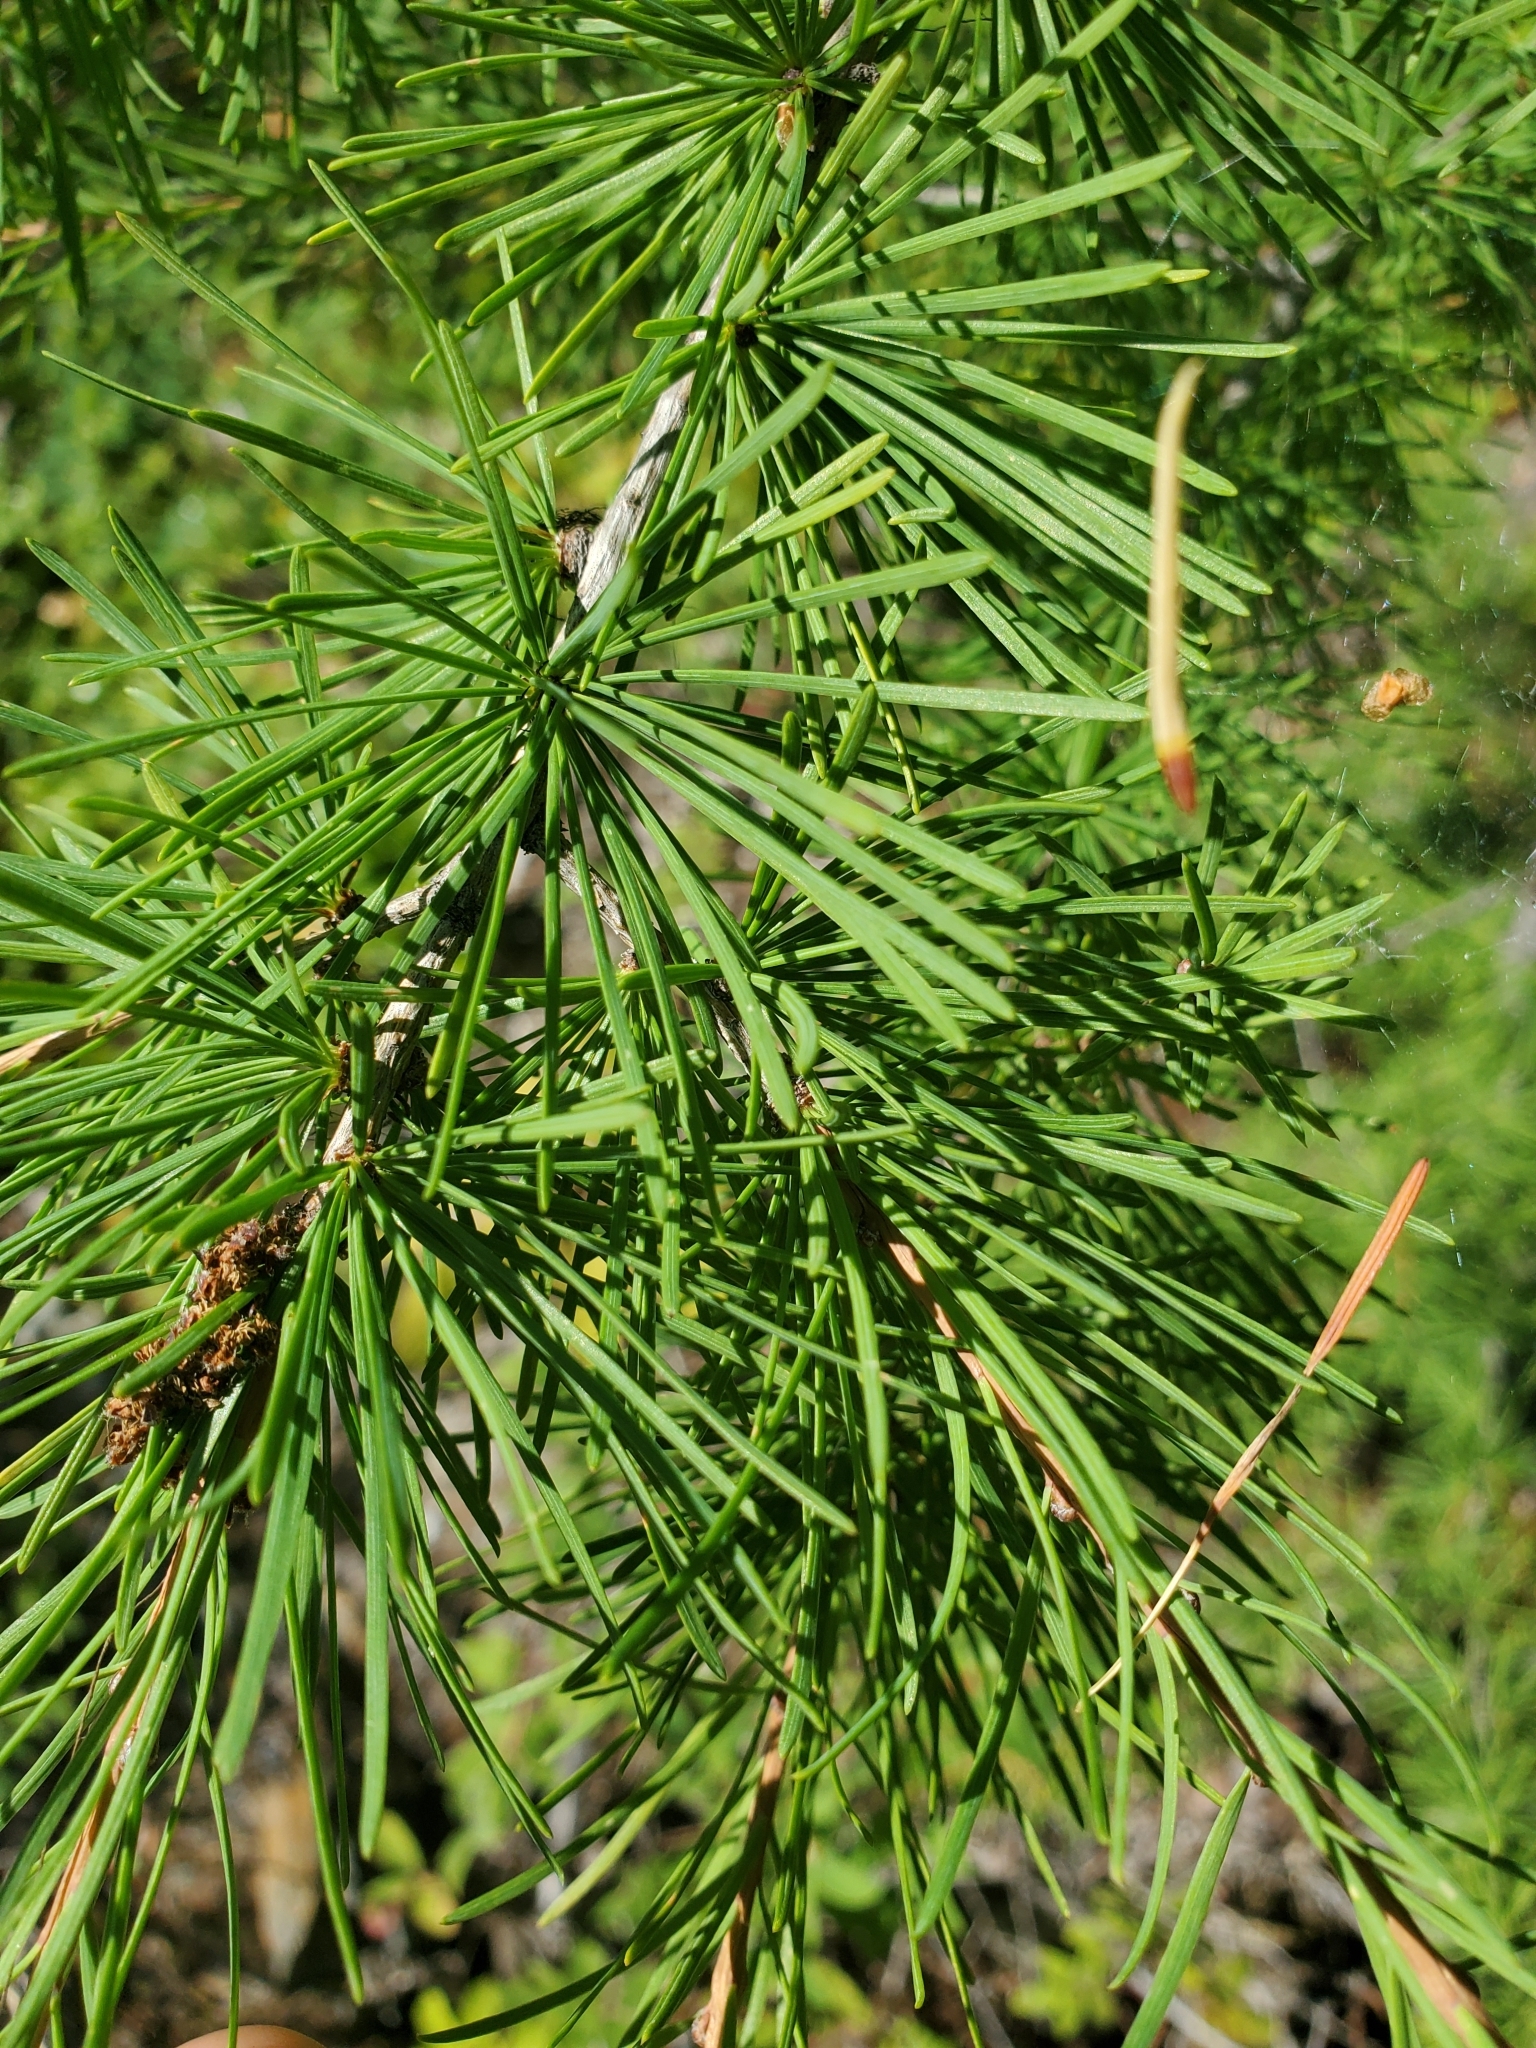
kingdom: Plantae
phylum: Tracheophyta
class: Pinopsida
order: Pinales
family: Pinaceae
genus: Larix
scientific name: Larix occidentalis
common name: Western larch
